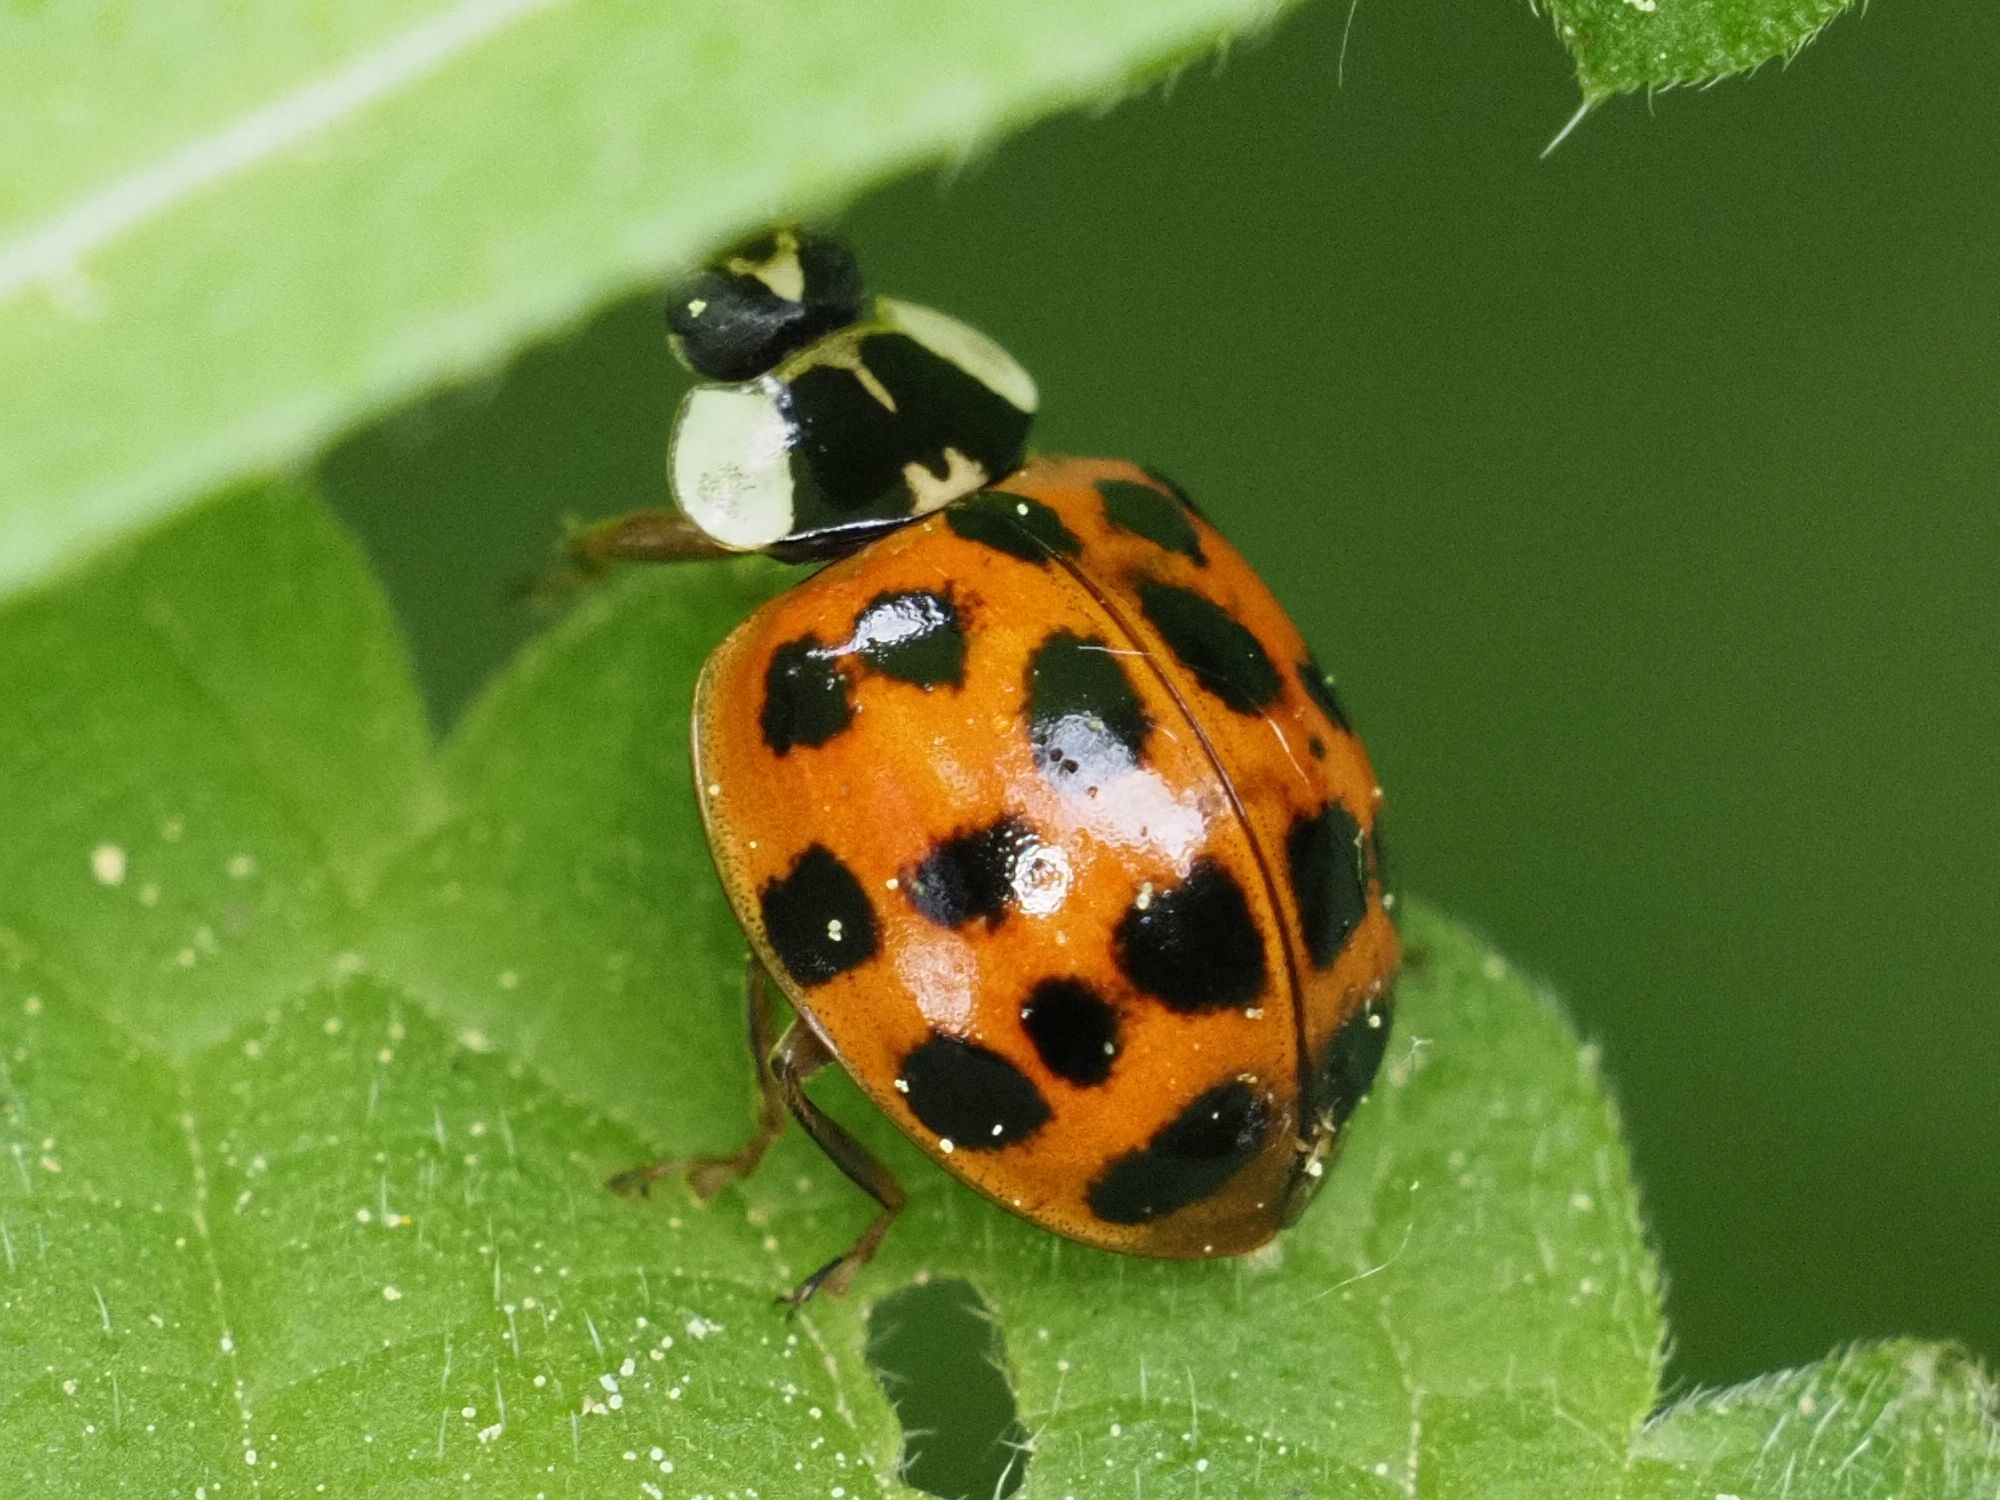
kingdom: Animalia
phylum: Arthropoda
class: Insecta
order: Coleoptera
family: Coccinellidae
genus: Harmonia
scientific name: Harmonia axyridis
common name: Harlequin ladybird
